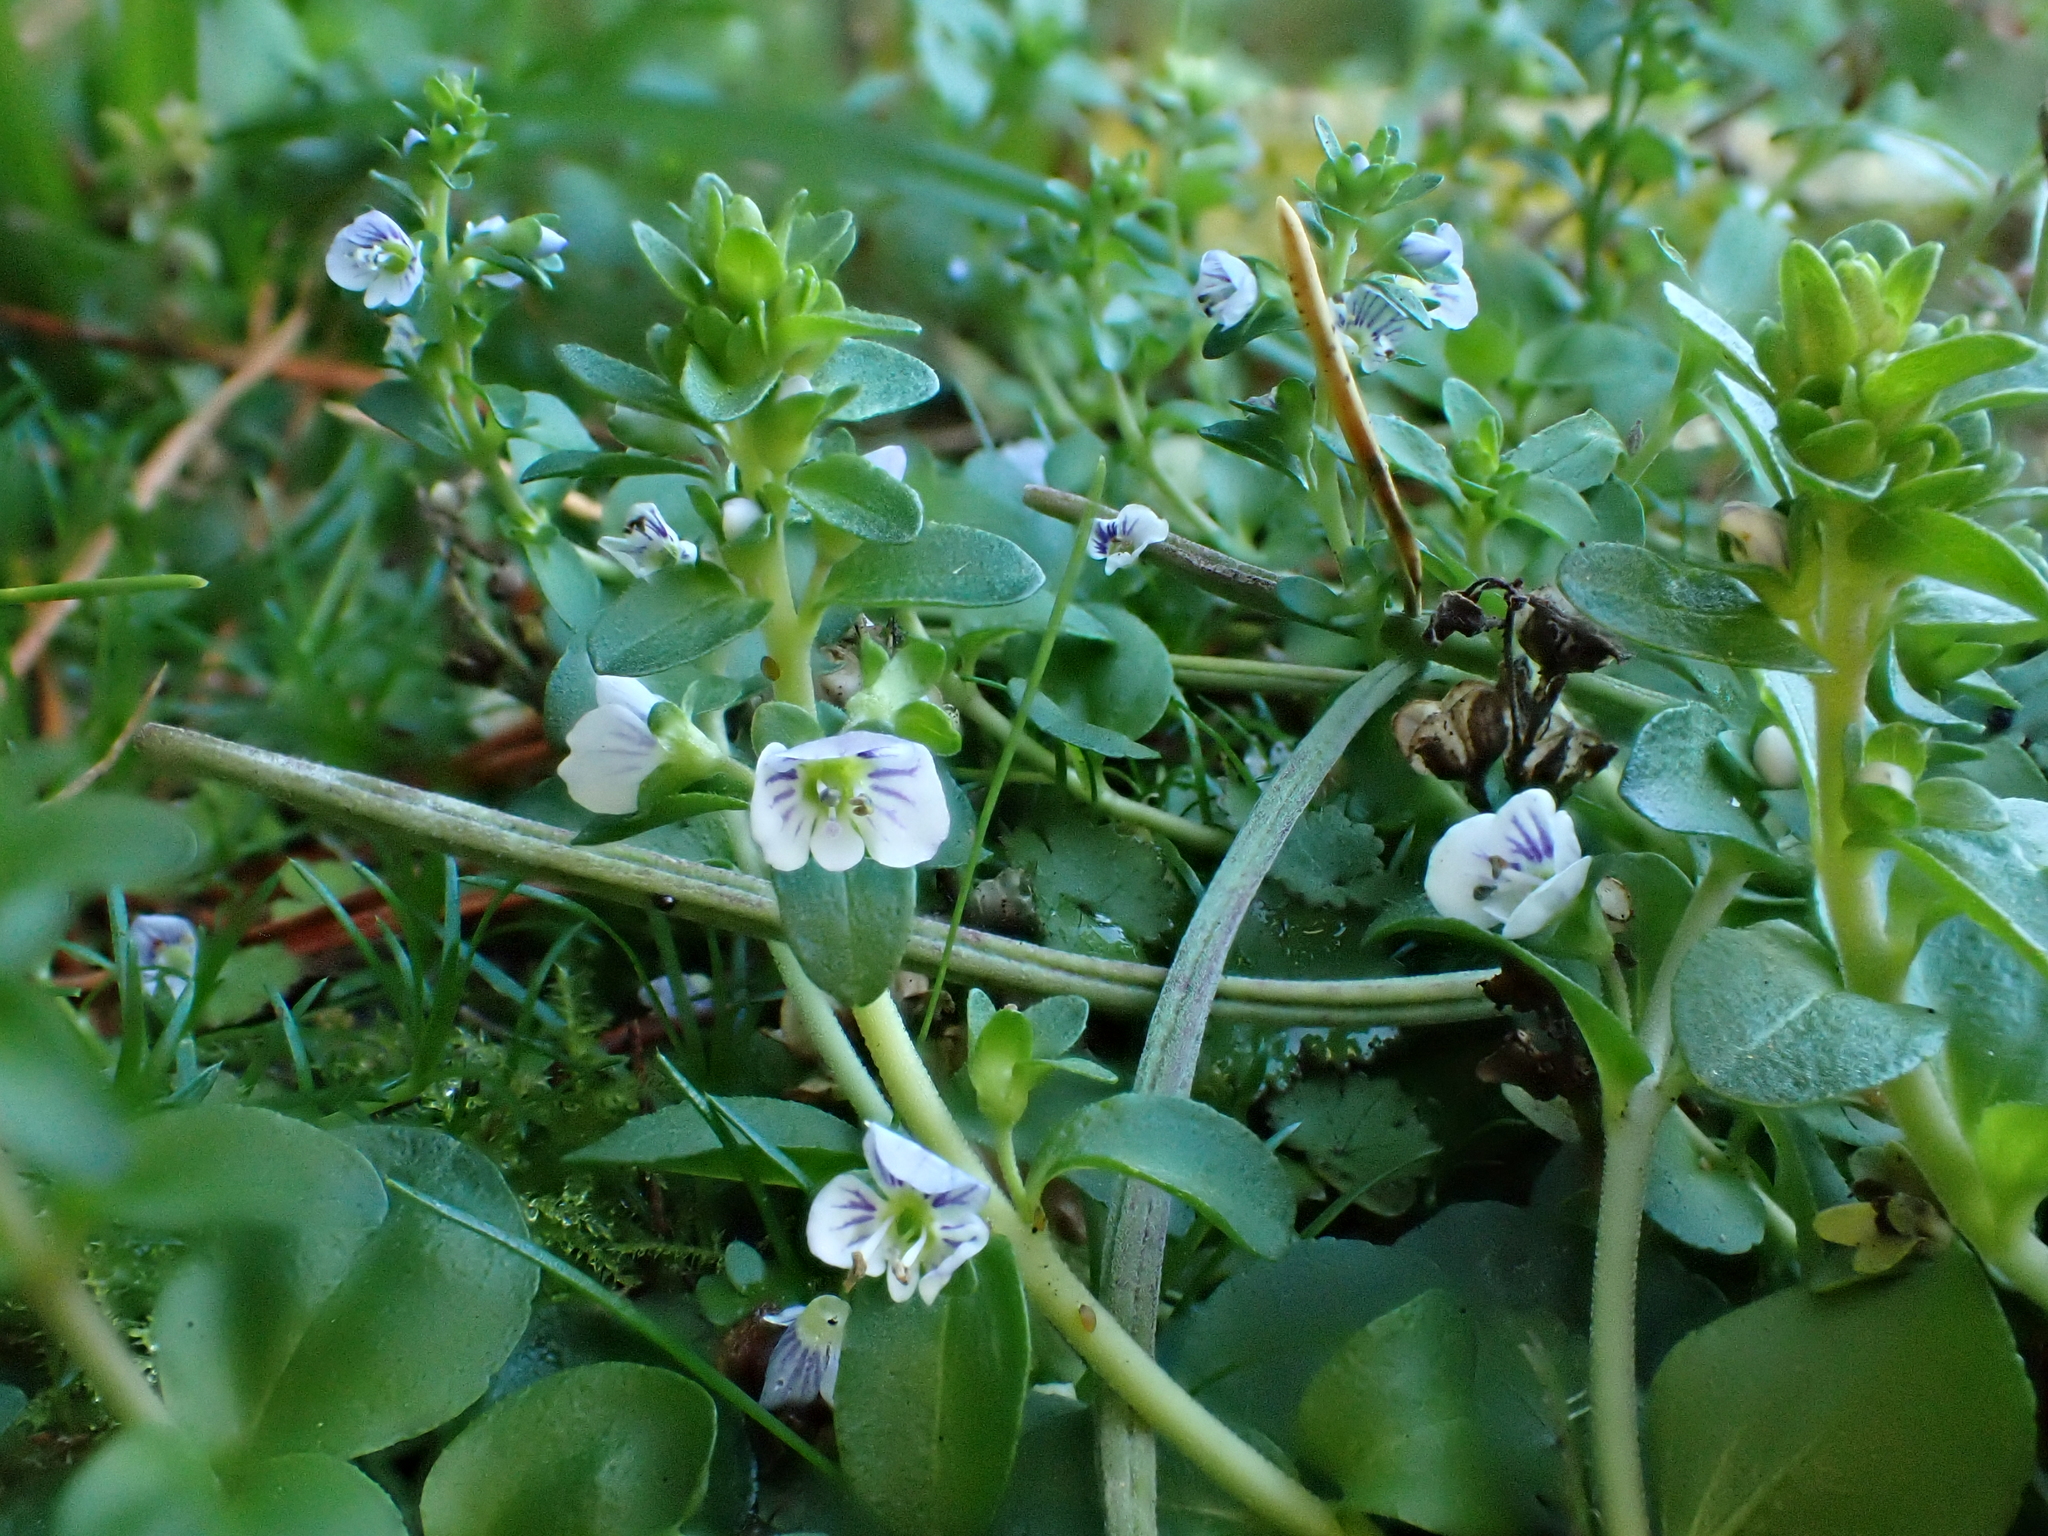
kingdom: Plantae
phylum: Tracheophyta
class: Magnoliopsida
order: Lamiales
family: Plantaginaceae
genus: Veronica
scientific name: Veronica serpyllifolia
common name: Thyme-leaved speedwell
